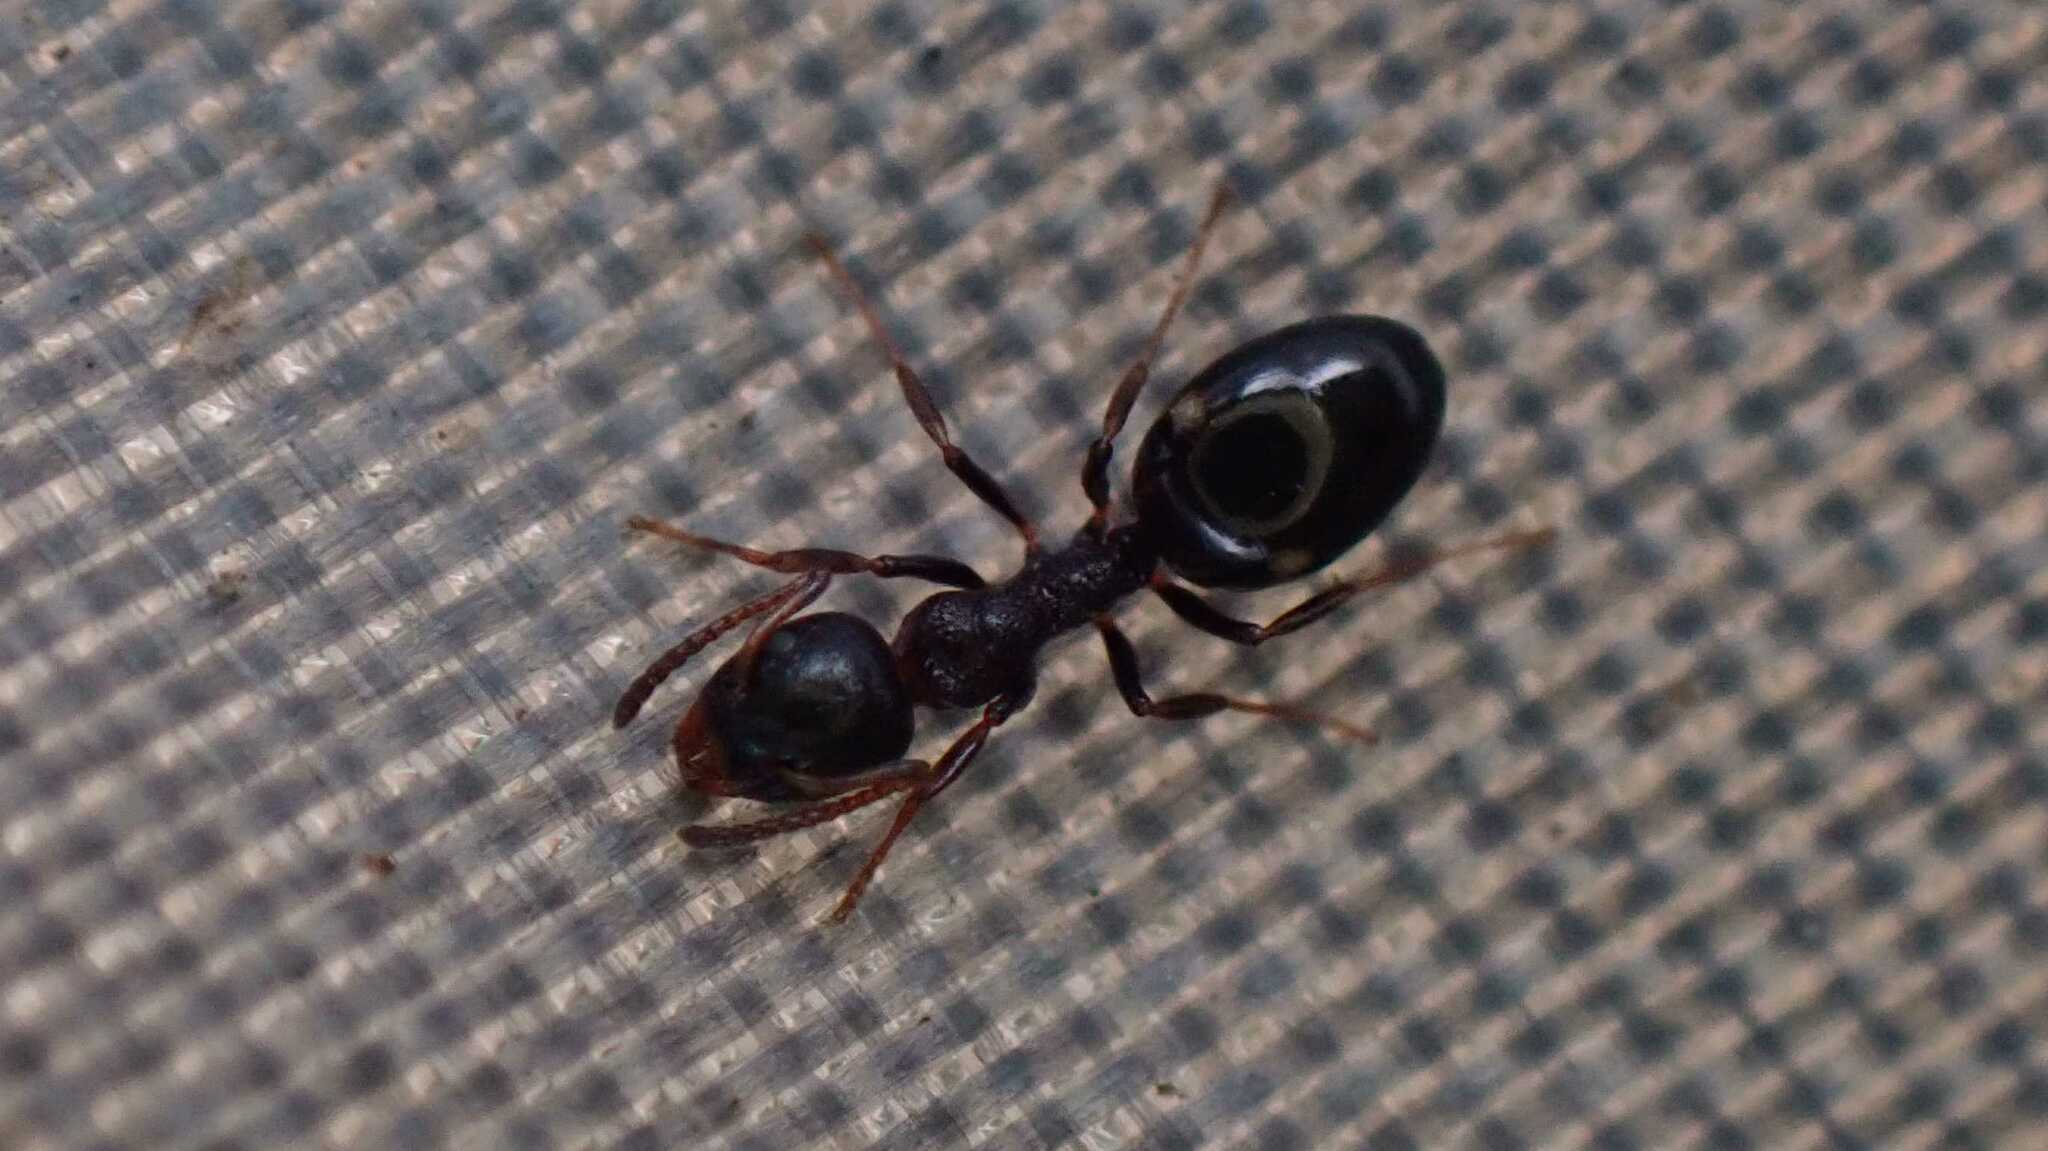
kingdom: Animalia
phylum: Arthropoda
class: Insecta
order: Hymenoptera
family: Formicidae
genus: Dolichoderus
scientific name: Dolichoderus quadripunctatus
